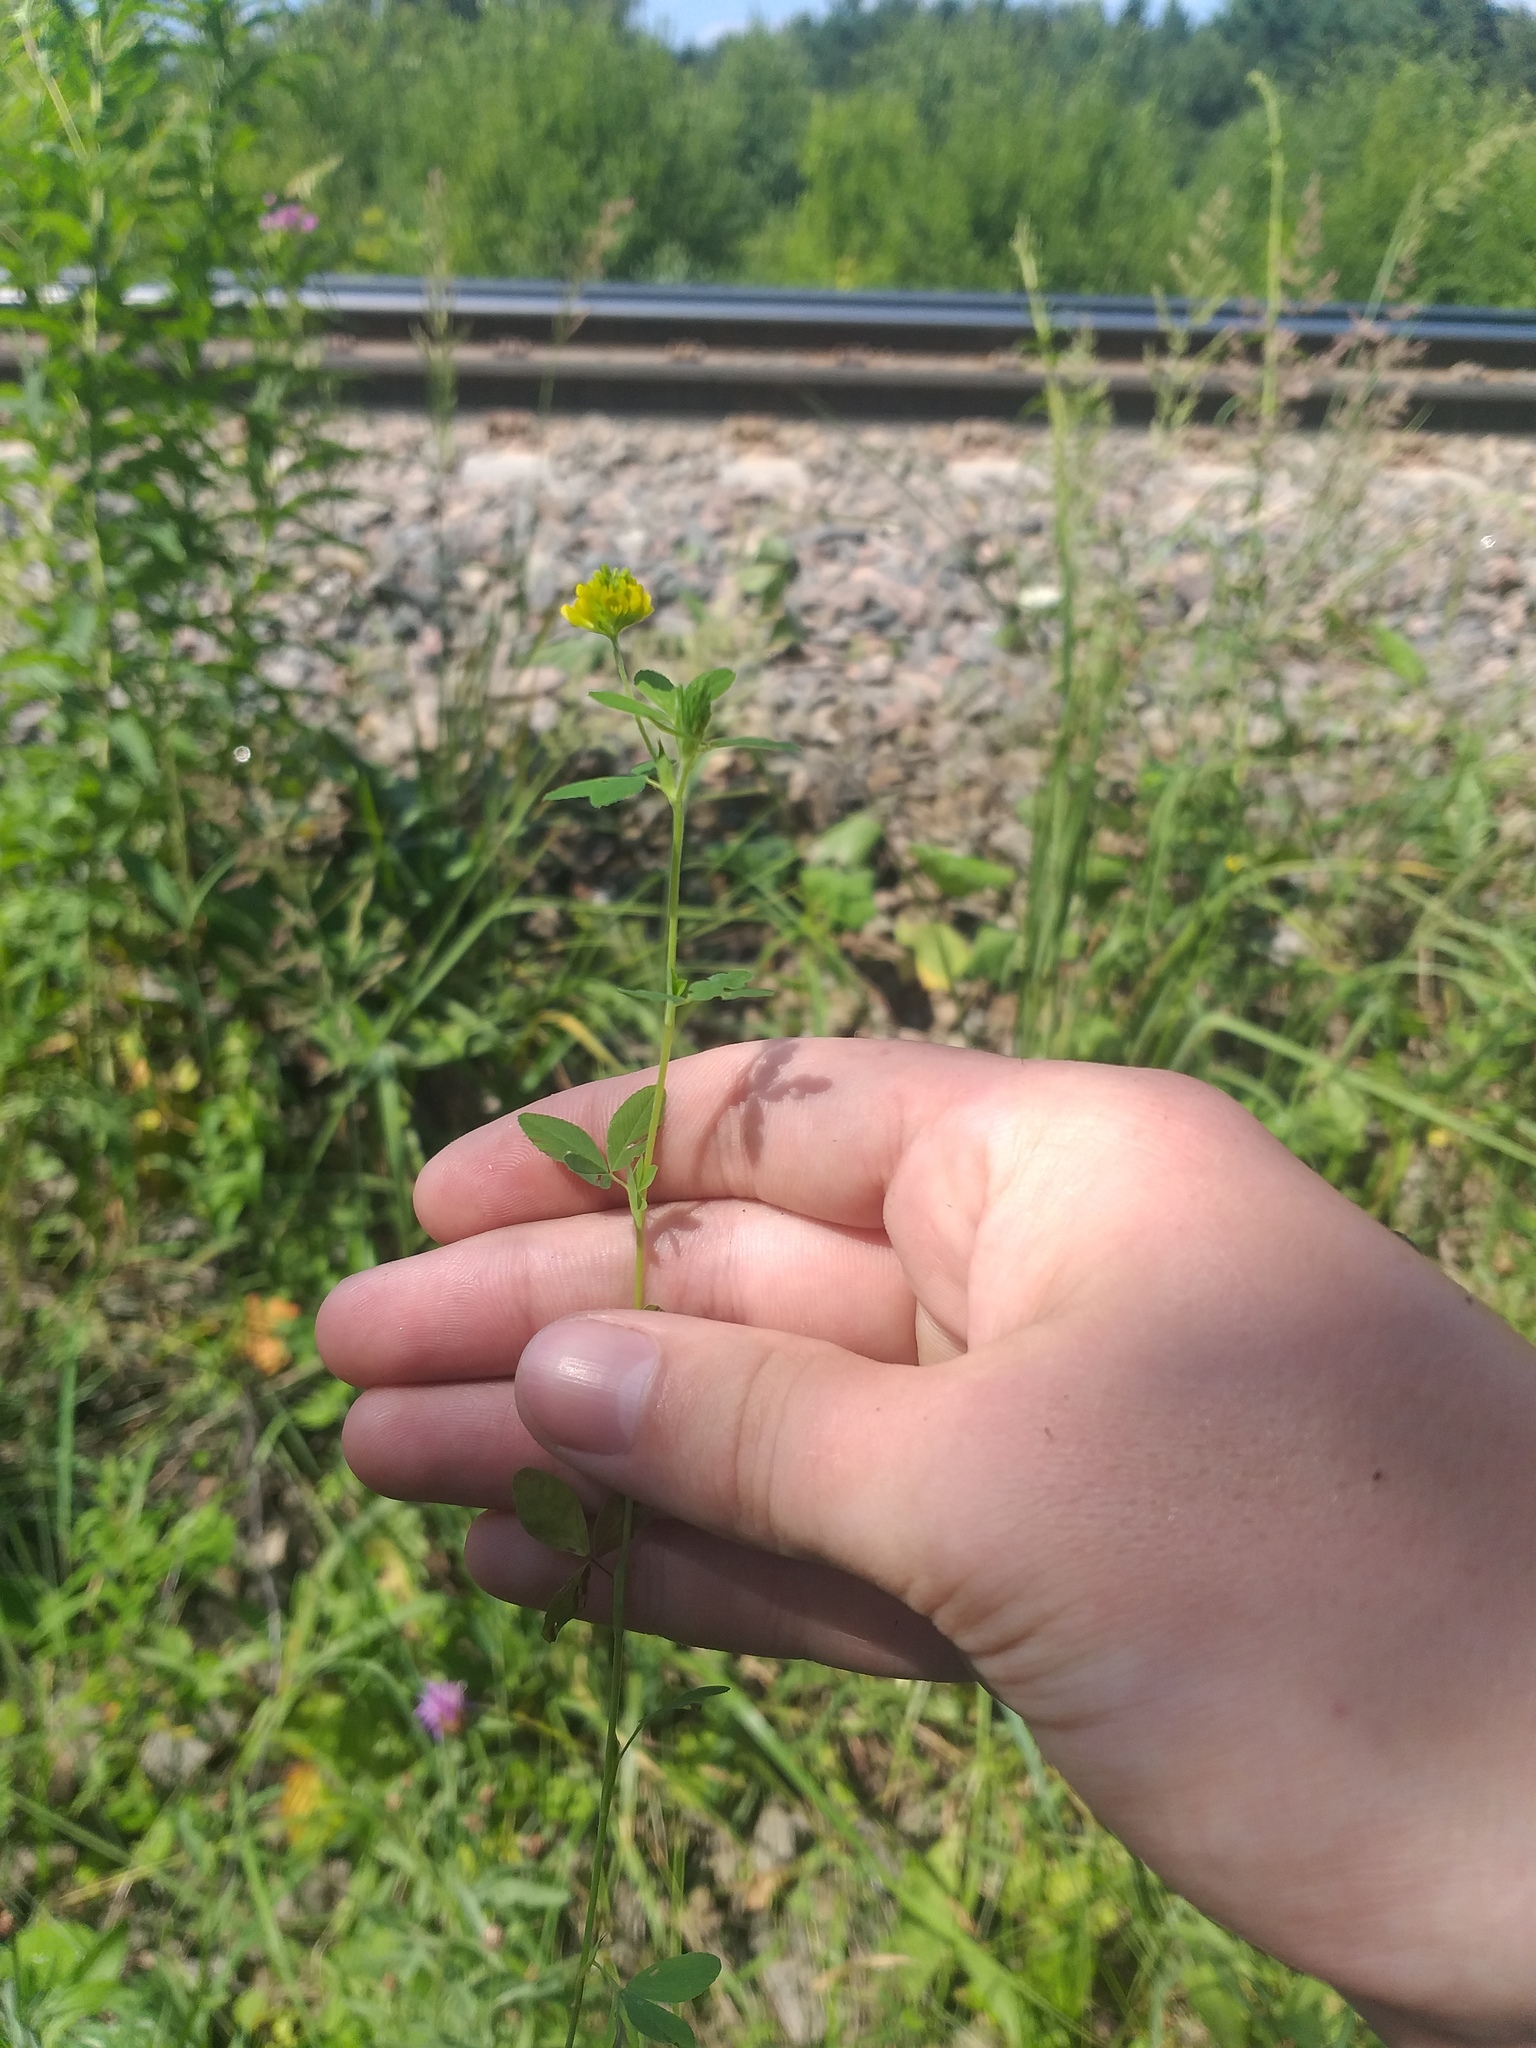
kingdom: Plantae
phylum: Tracheophyta
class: Magnoliopsida
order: Fabales
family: Fabaceae
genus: Trifolium
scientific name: Trifolium aureum
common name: Golden clover
